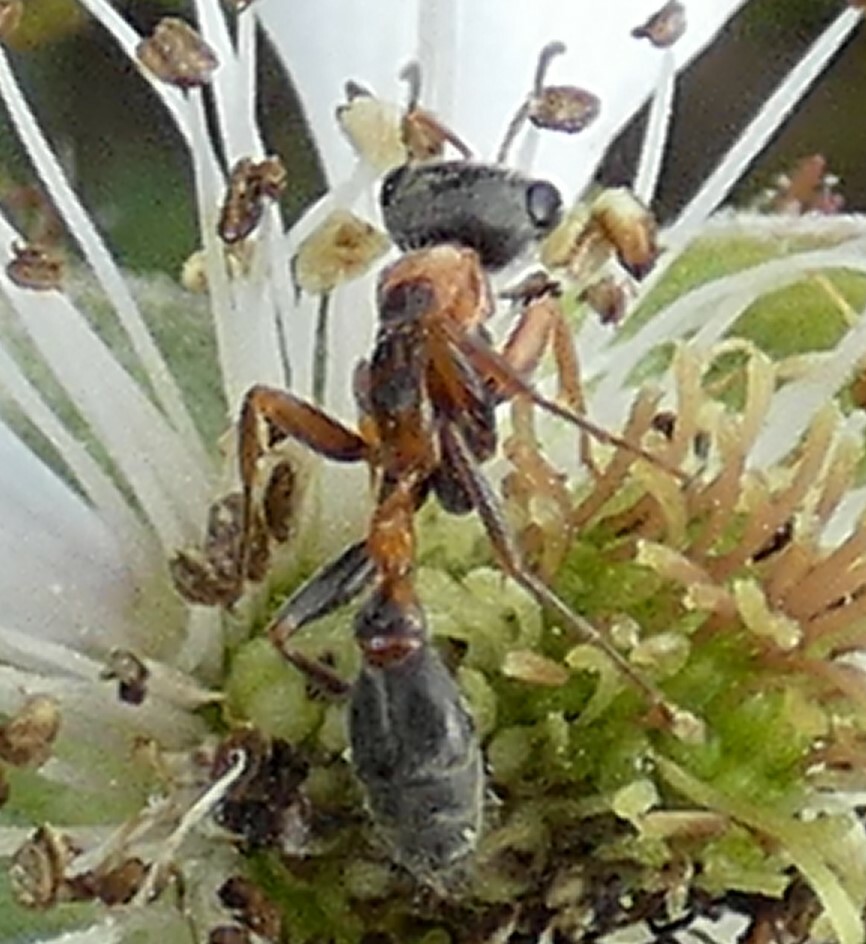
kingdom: Animalia
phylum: Arthropoda
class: Insecta
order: Hymenoptera
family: Formicidae
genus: Pseudomyrmex
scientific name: Pseudomyrmex gracilis
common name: Graceful twig ant
